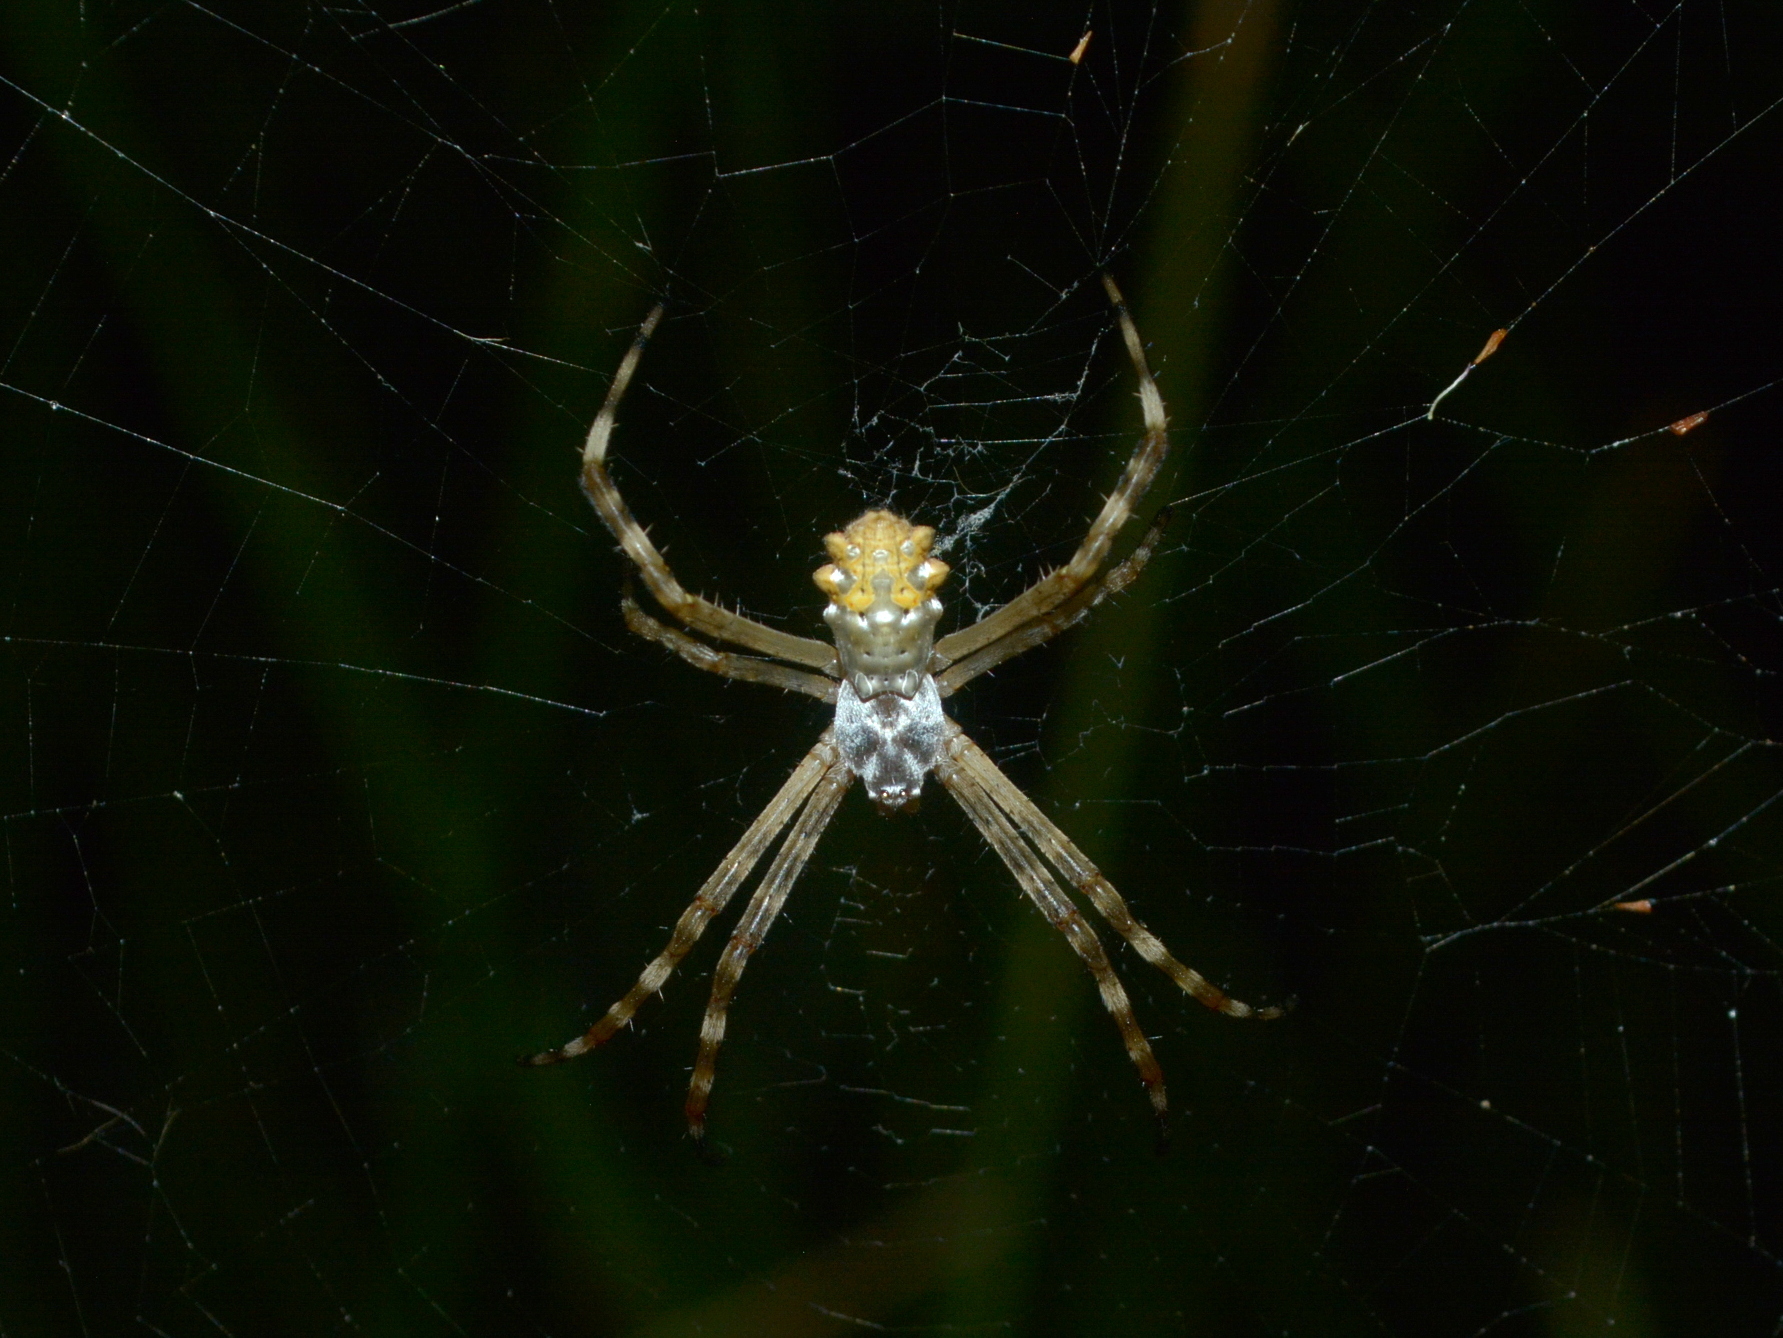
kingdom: Animalia
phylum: Arthropoda
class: Arachnida
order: Araneae
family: Araneidae
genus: Argiope
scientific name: Argiope argentata
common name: Orb weavers
